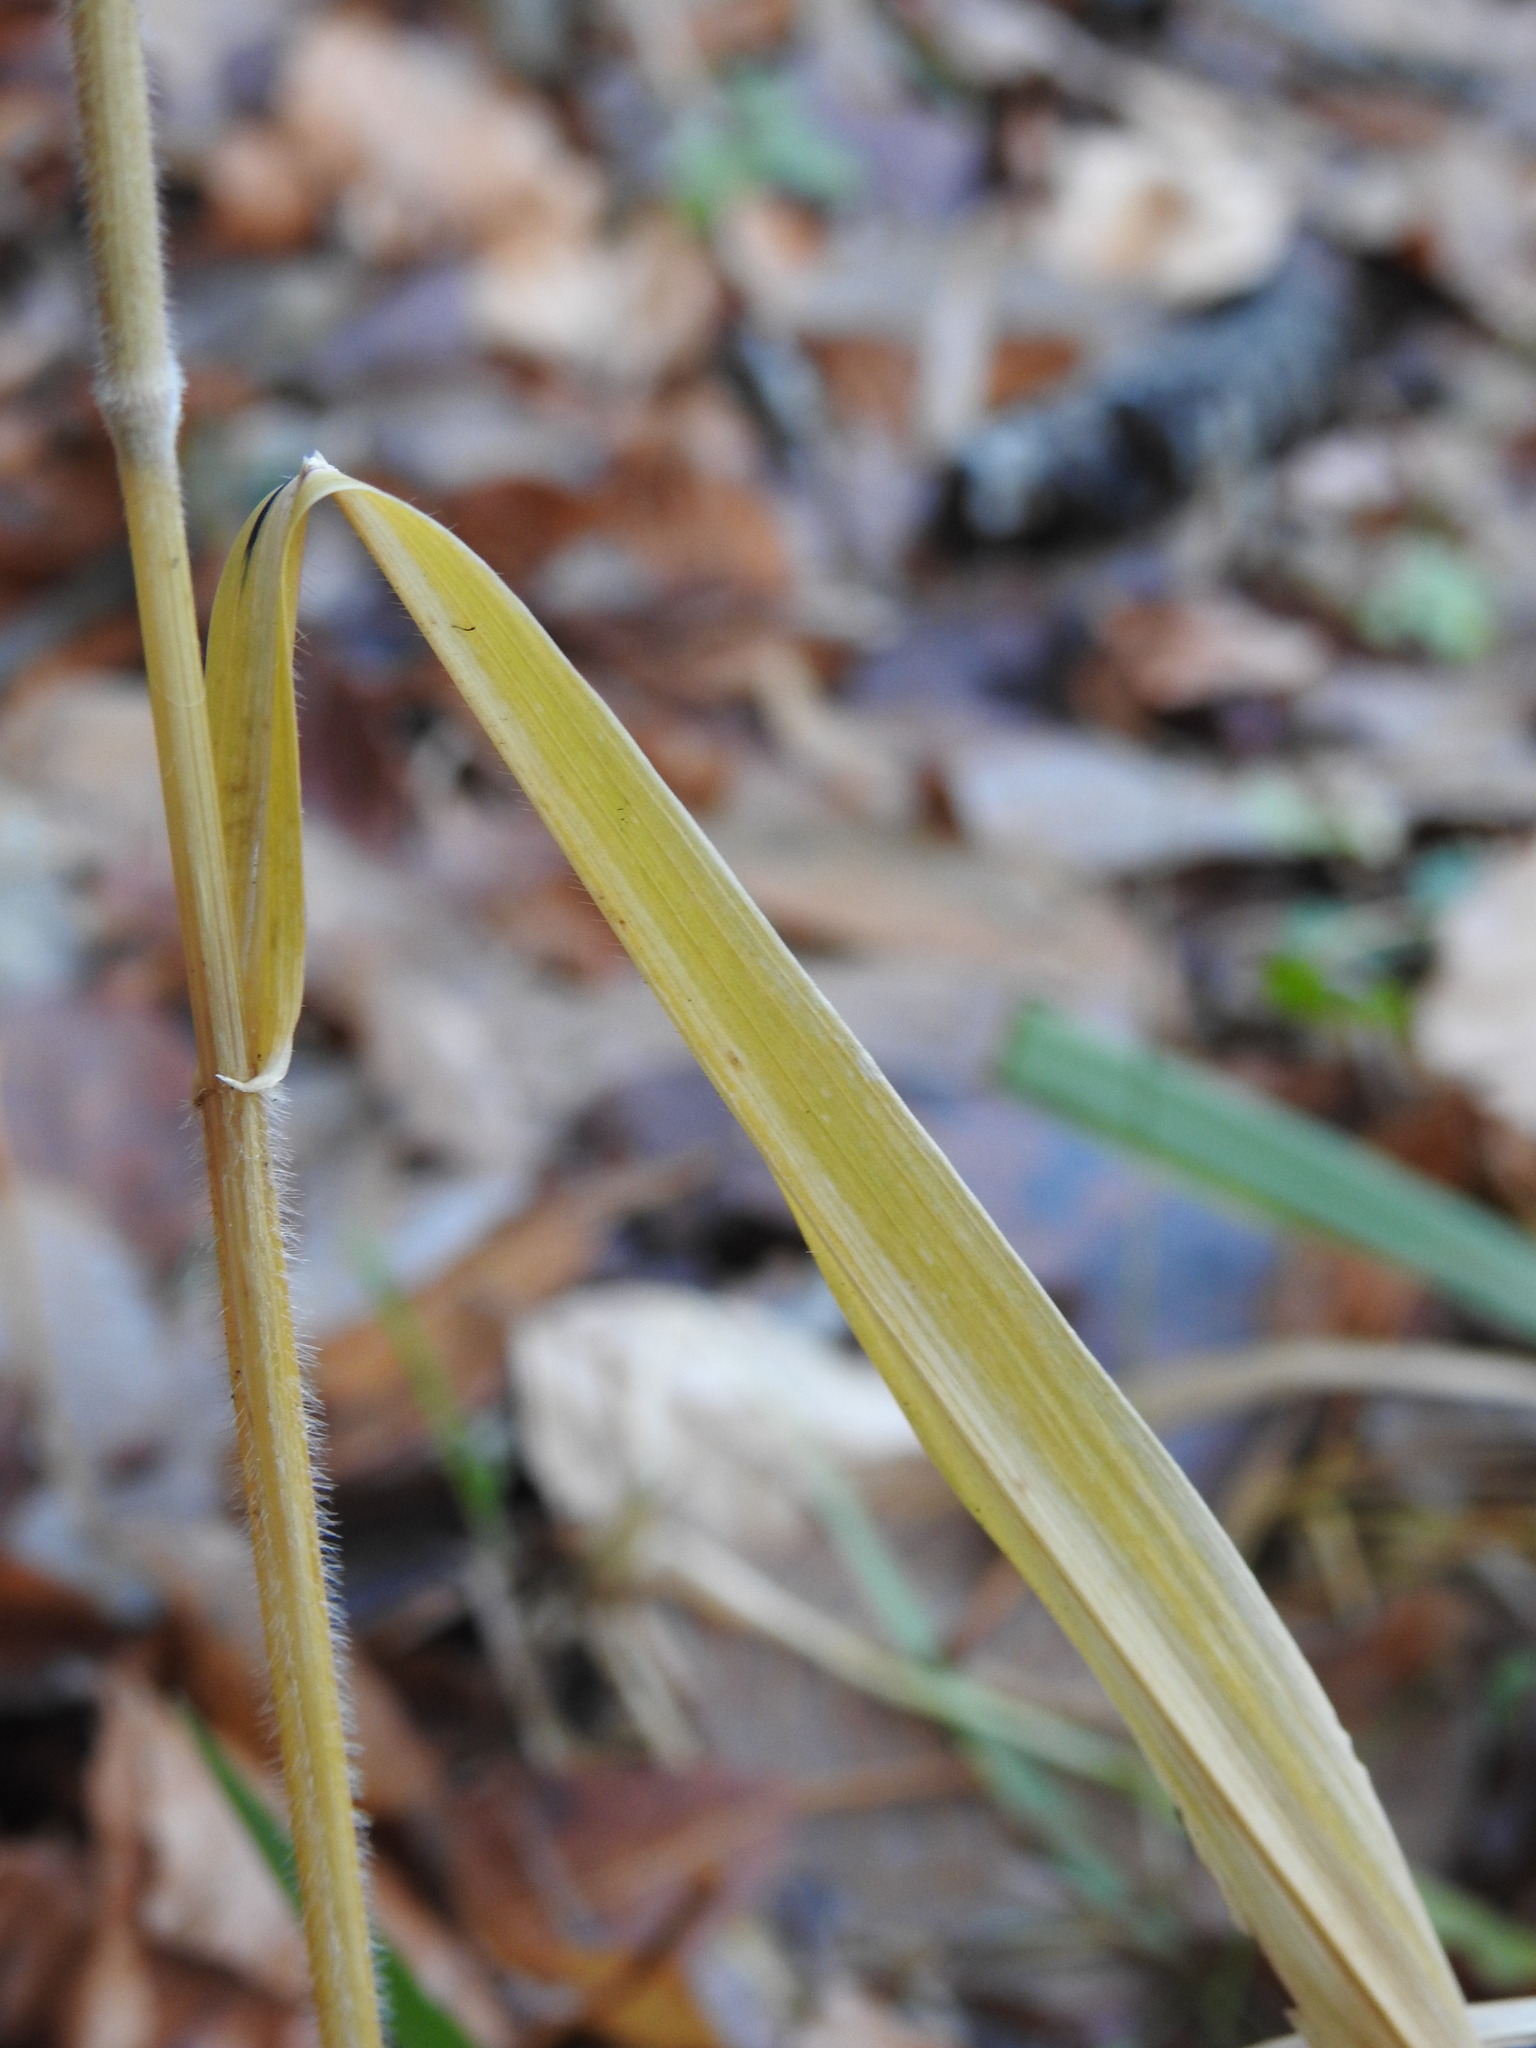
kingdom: Plantae
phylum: Tracheophyta
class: Liliopsida
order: Poales
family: Poaceae
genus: Hordelymus
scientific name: Hordelymus europaeus
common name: Wood-barley
